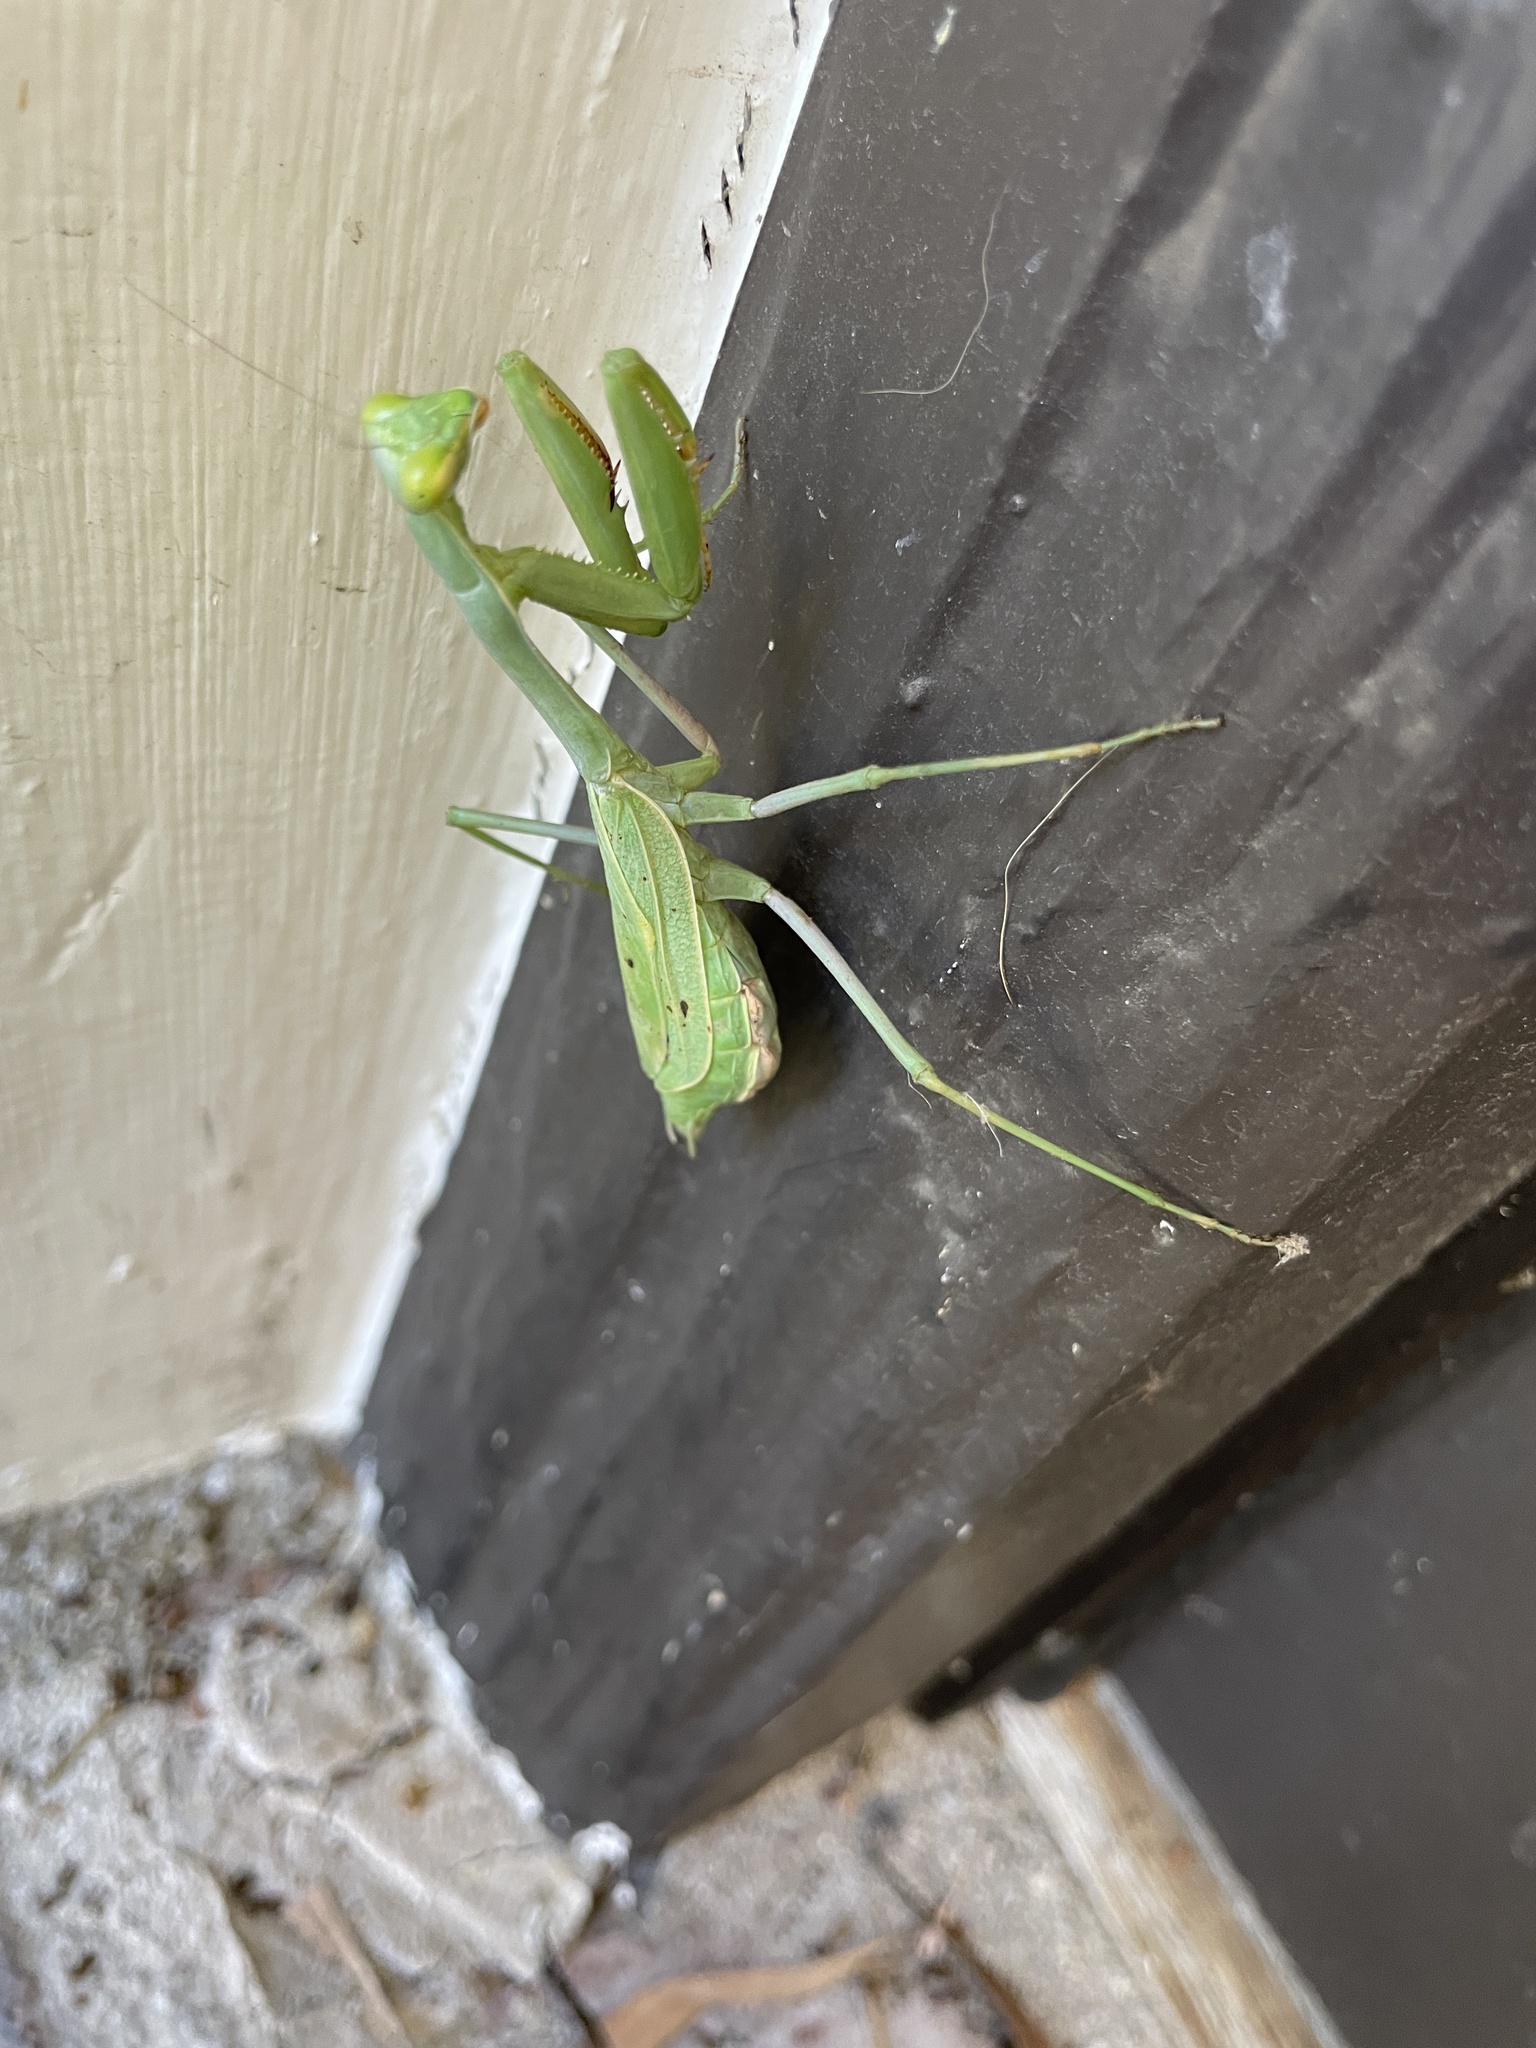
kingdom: Animalia
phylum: Arthropoda
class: Insecta
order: Mantodea
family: Mantidae
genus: Stagmomantis
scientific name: Stagmomantis limbata
